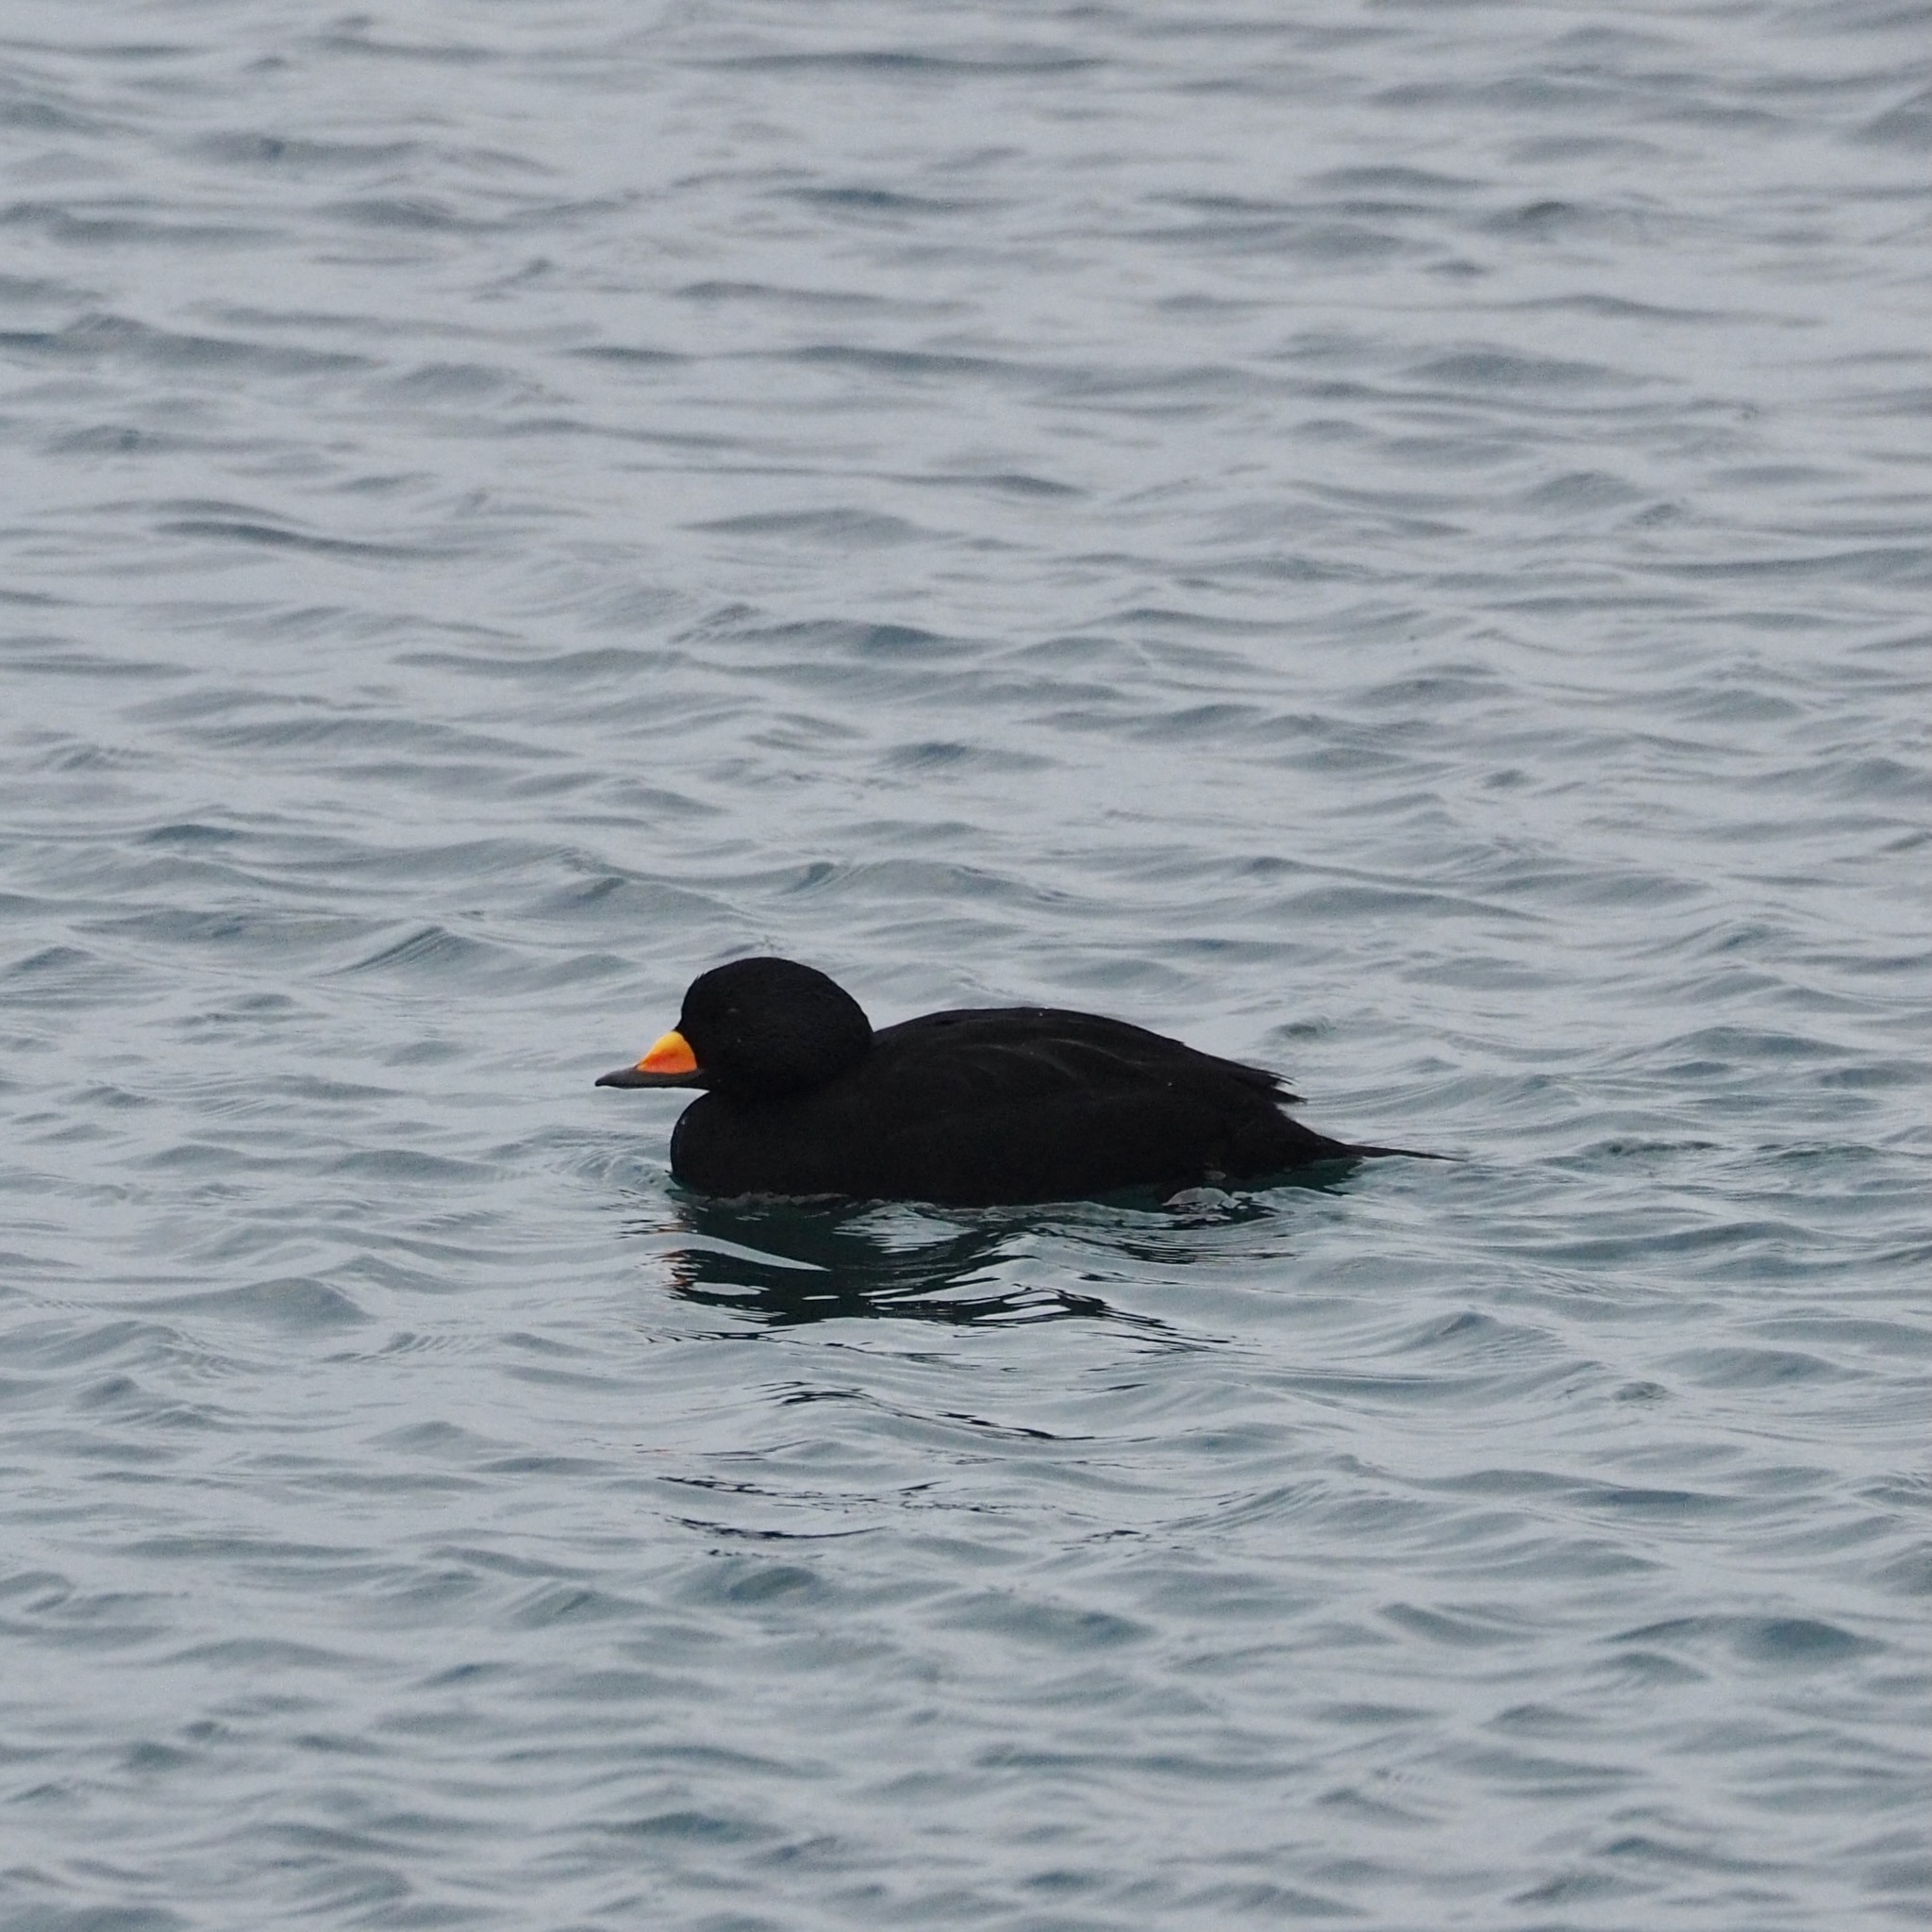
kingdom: Animalia
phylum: Chordata
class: Aves
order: Anseriformes
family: Anatidae
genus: Melanitta
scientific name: Melanitta americana
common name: Black scoter
